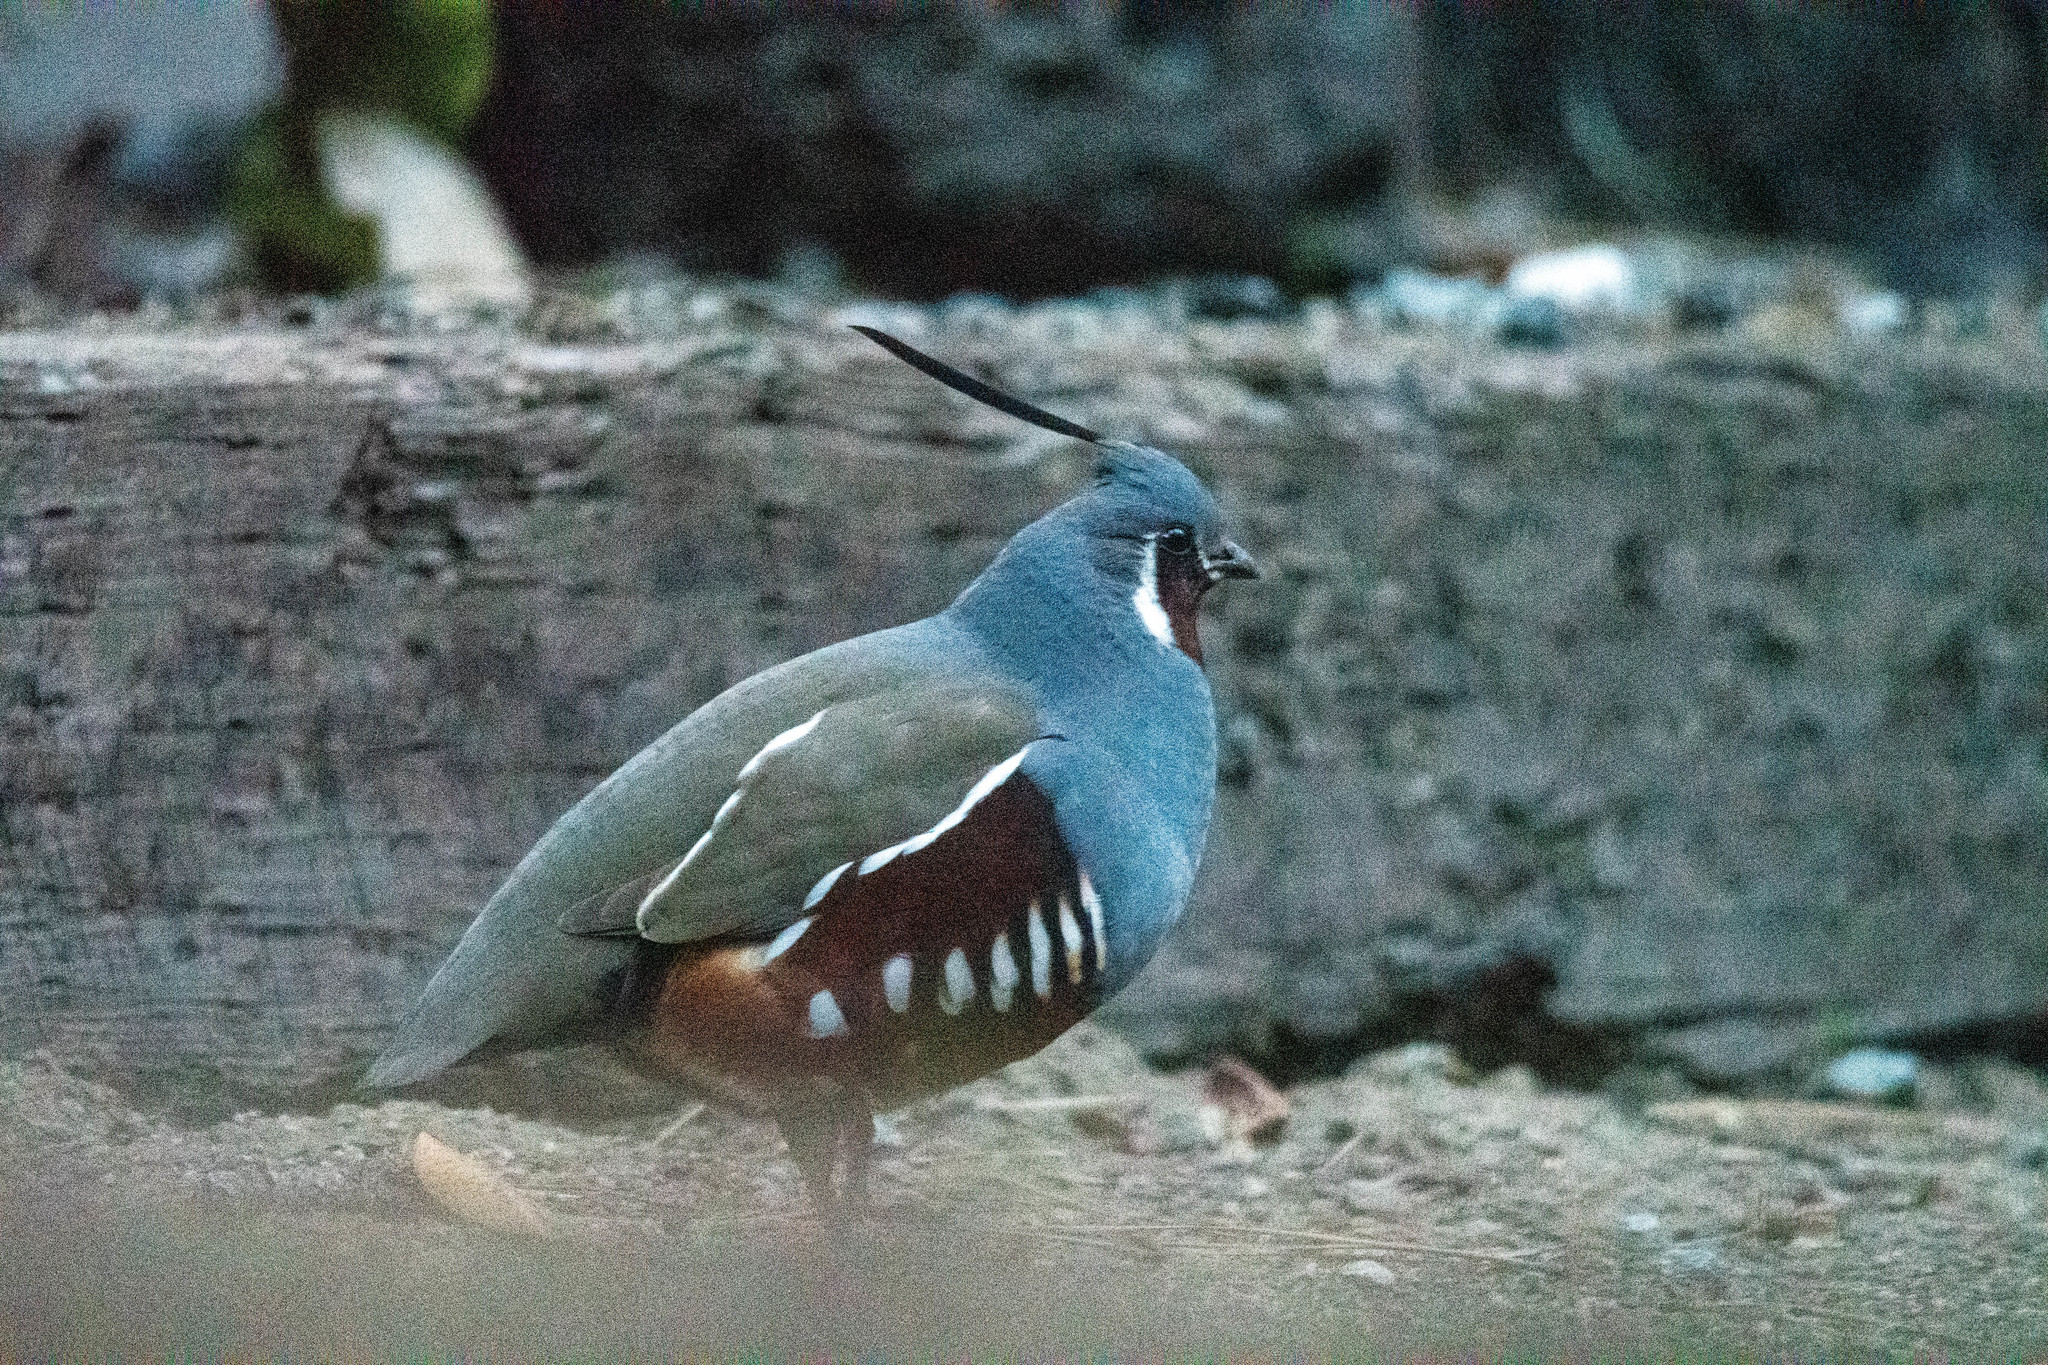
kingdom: Animalia
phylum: Chordata
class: Aves
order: Galliformes
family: Odontophoridae
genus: Oreortyx
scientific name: Oreortyx pictus
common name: Mountain quail
